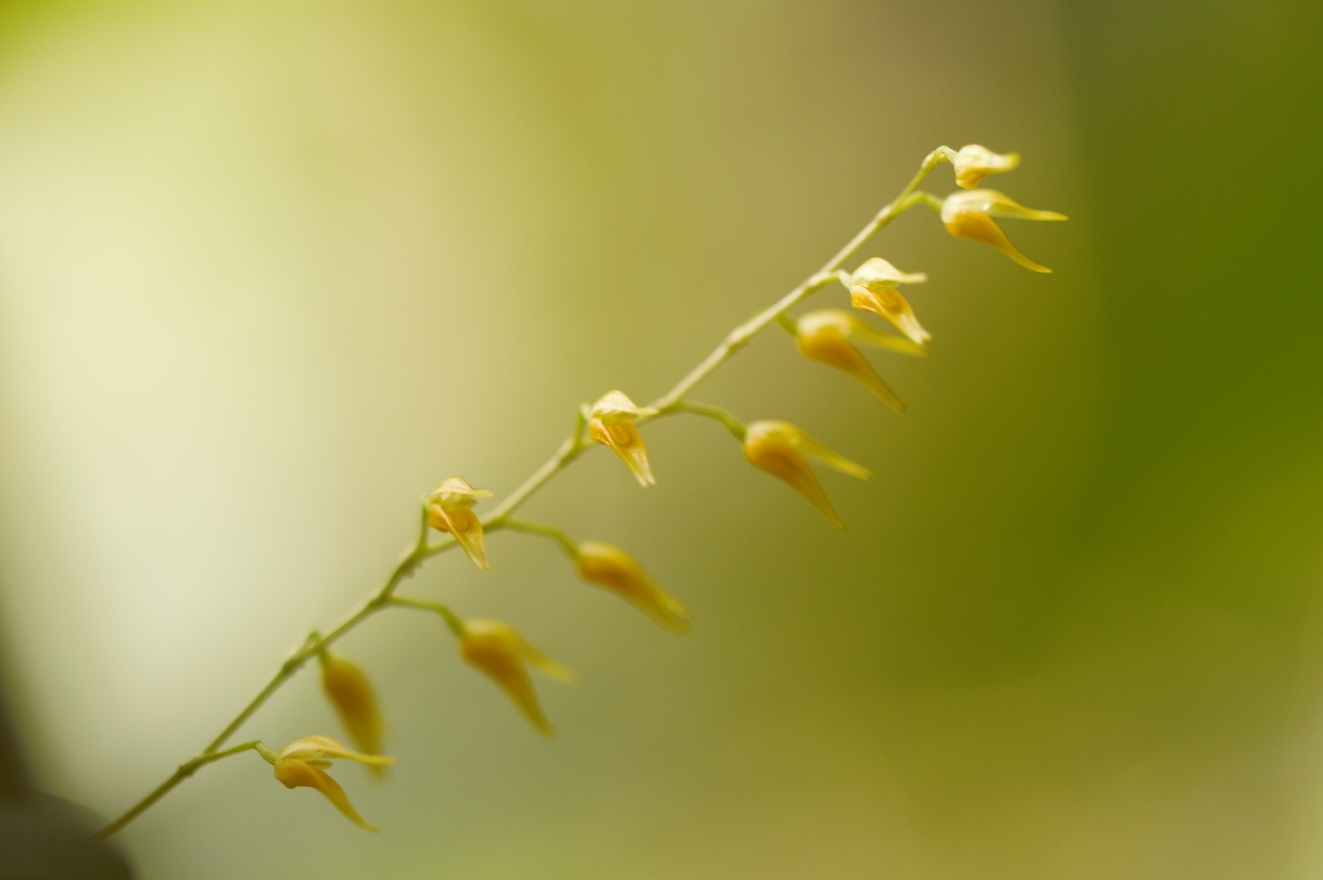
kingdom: Plantae
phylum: Tracheophyta
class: Liliopsida
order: Asparagales
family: Orchidaceae
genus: Specklinia
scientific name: Specklinia picta
